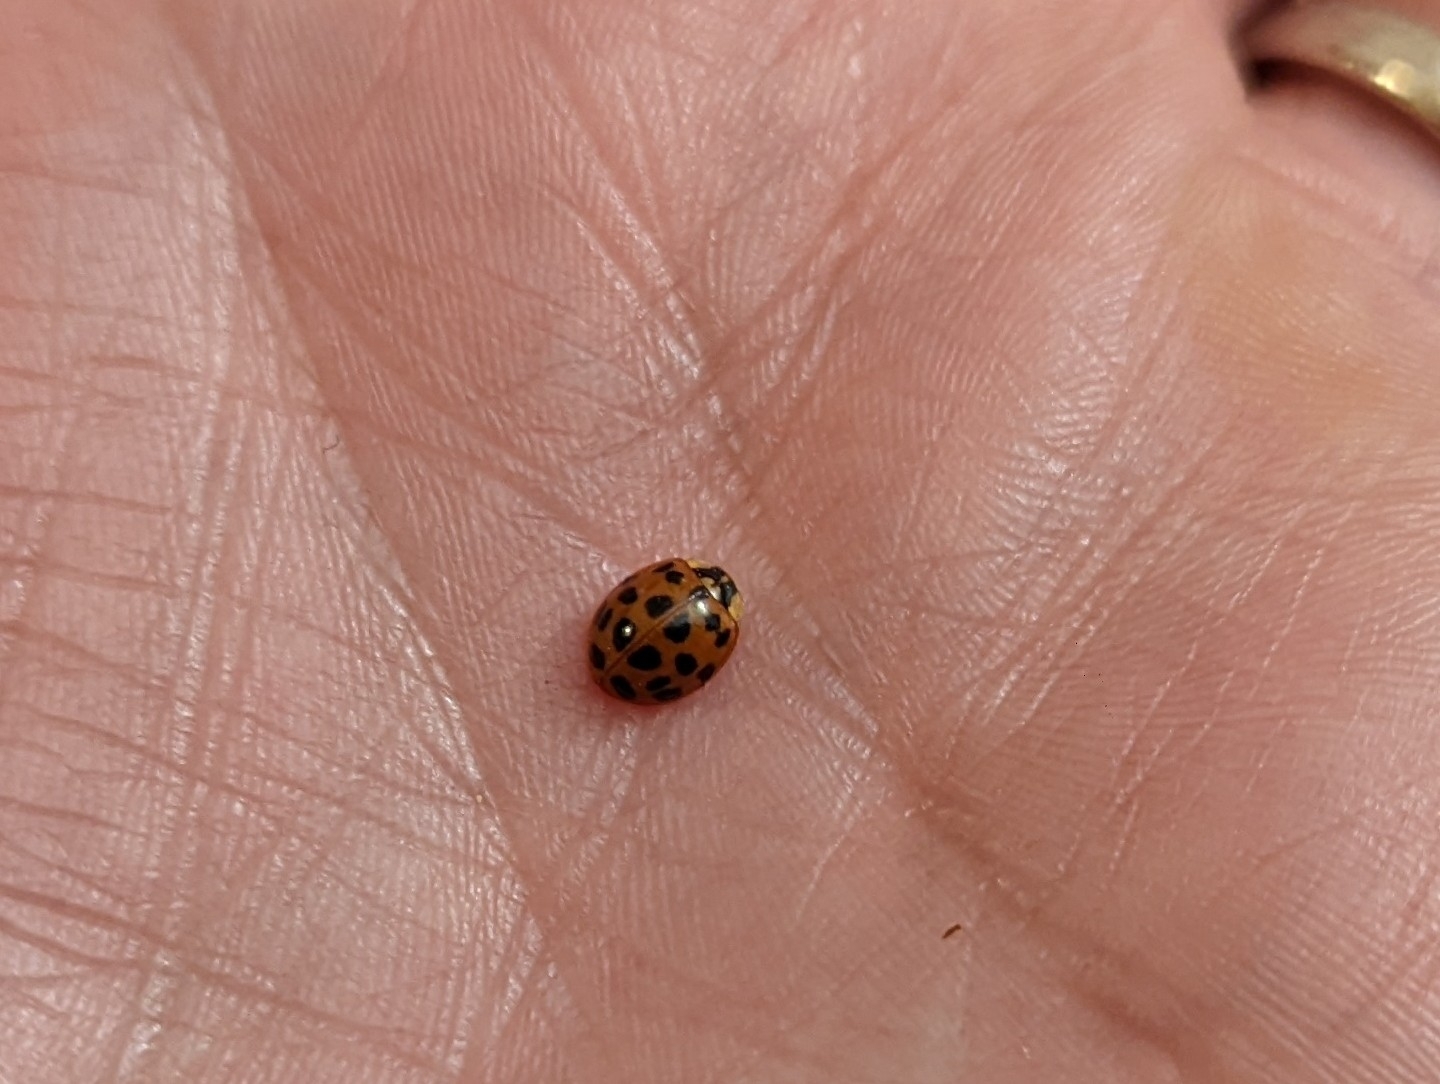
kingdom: Animalia
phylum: Arthropoda
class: Insecta
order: Coleoptera
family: Coccinellidae
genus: Harmonia
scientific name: Harmonia axyridis
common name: Harlequin ladybird
